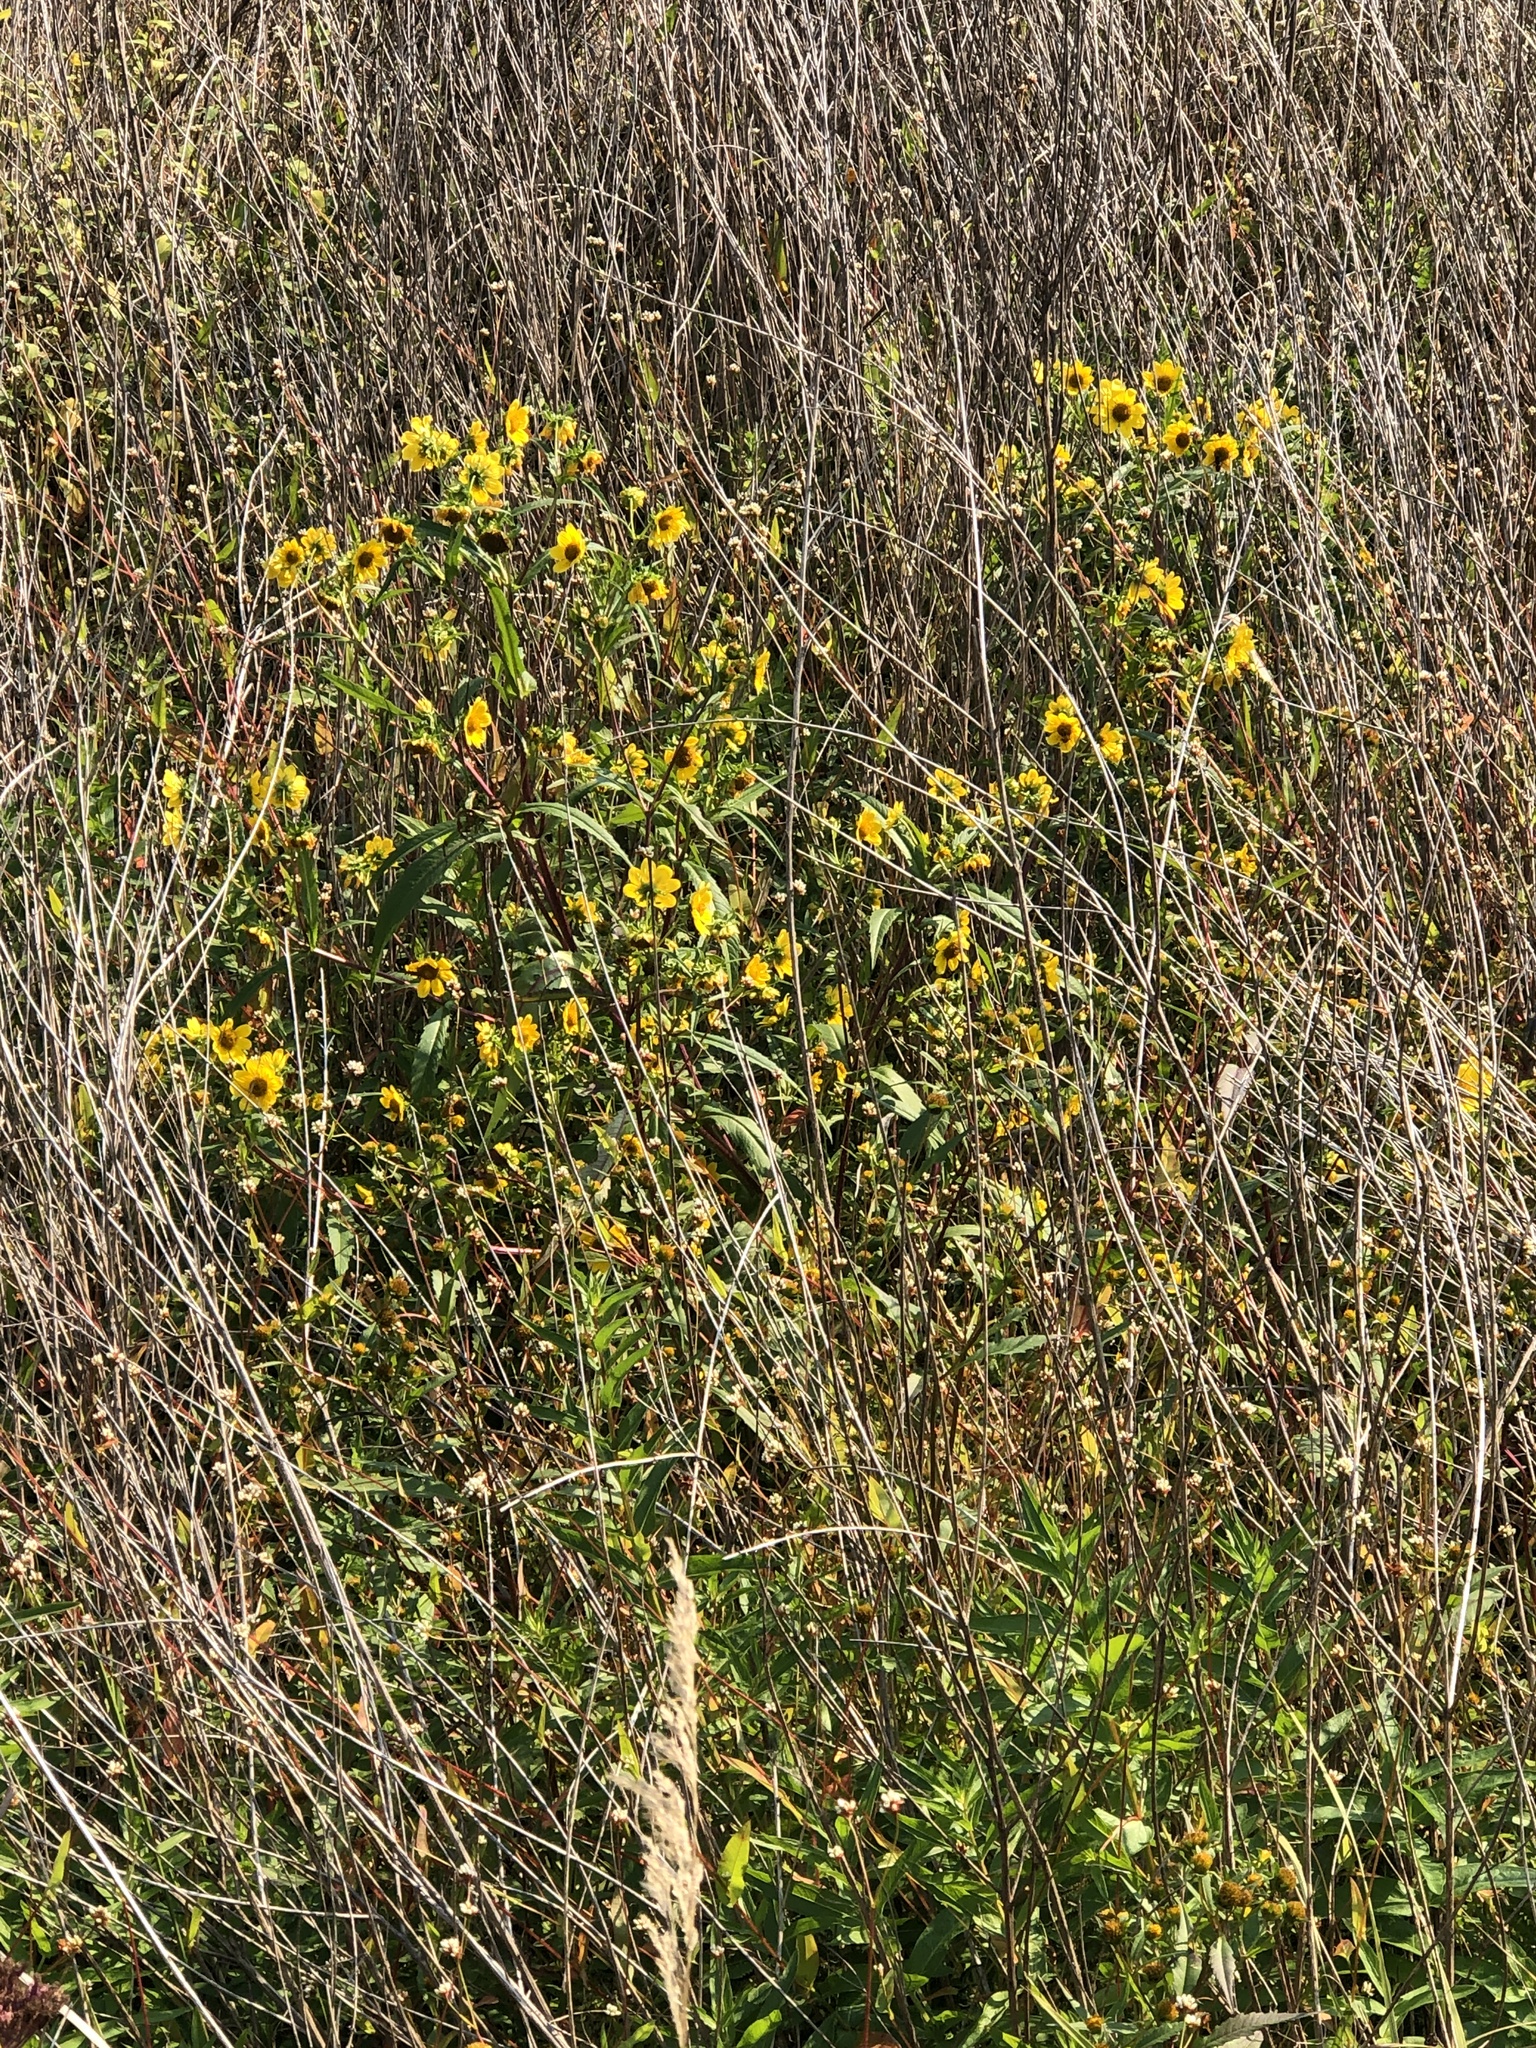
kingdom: Plantae
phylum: Tracheophyta
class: Magnoliopsida
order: Asterales
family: Asteraceae
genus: Bidens
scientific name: Bidens cernua
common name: Nodding bur-marigold
